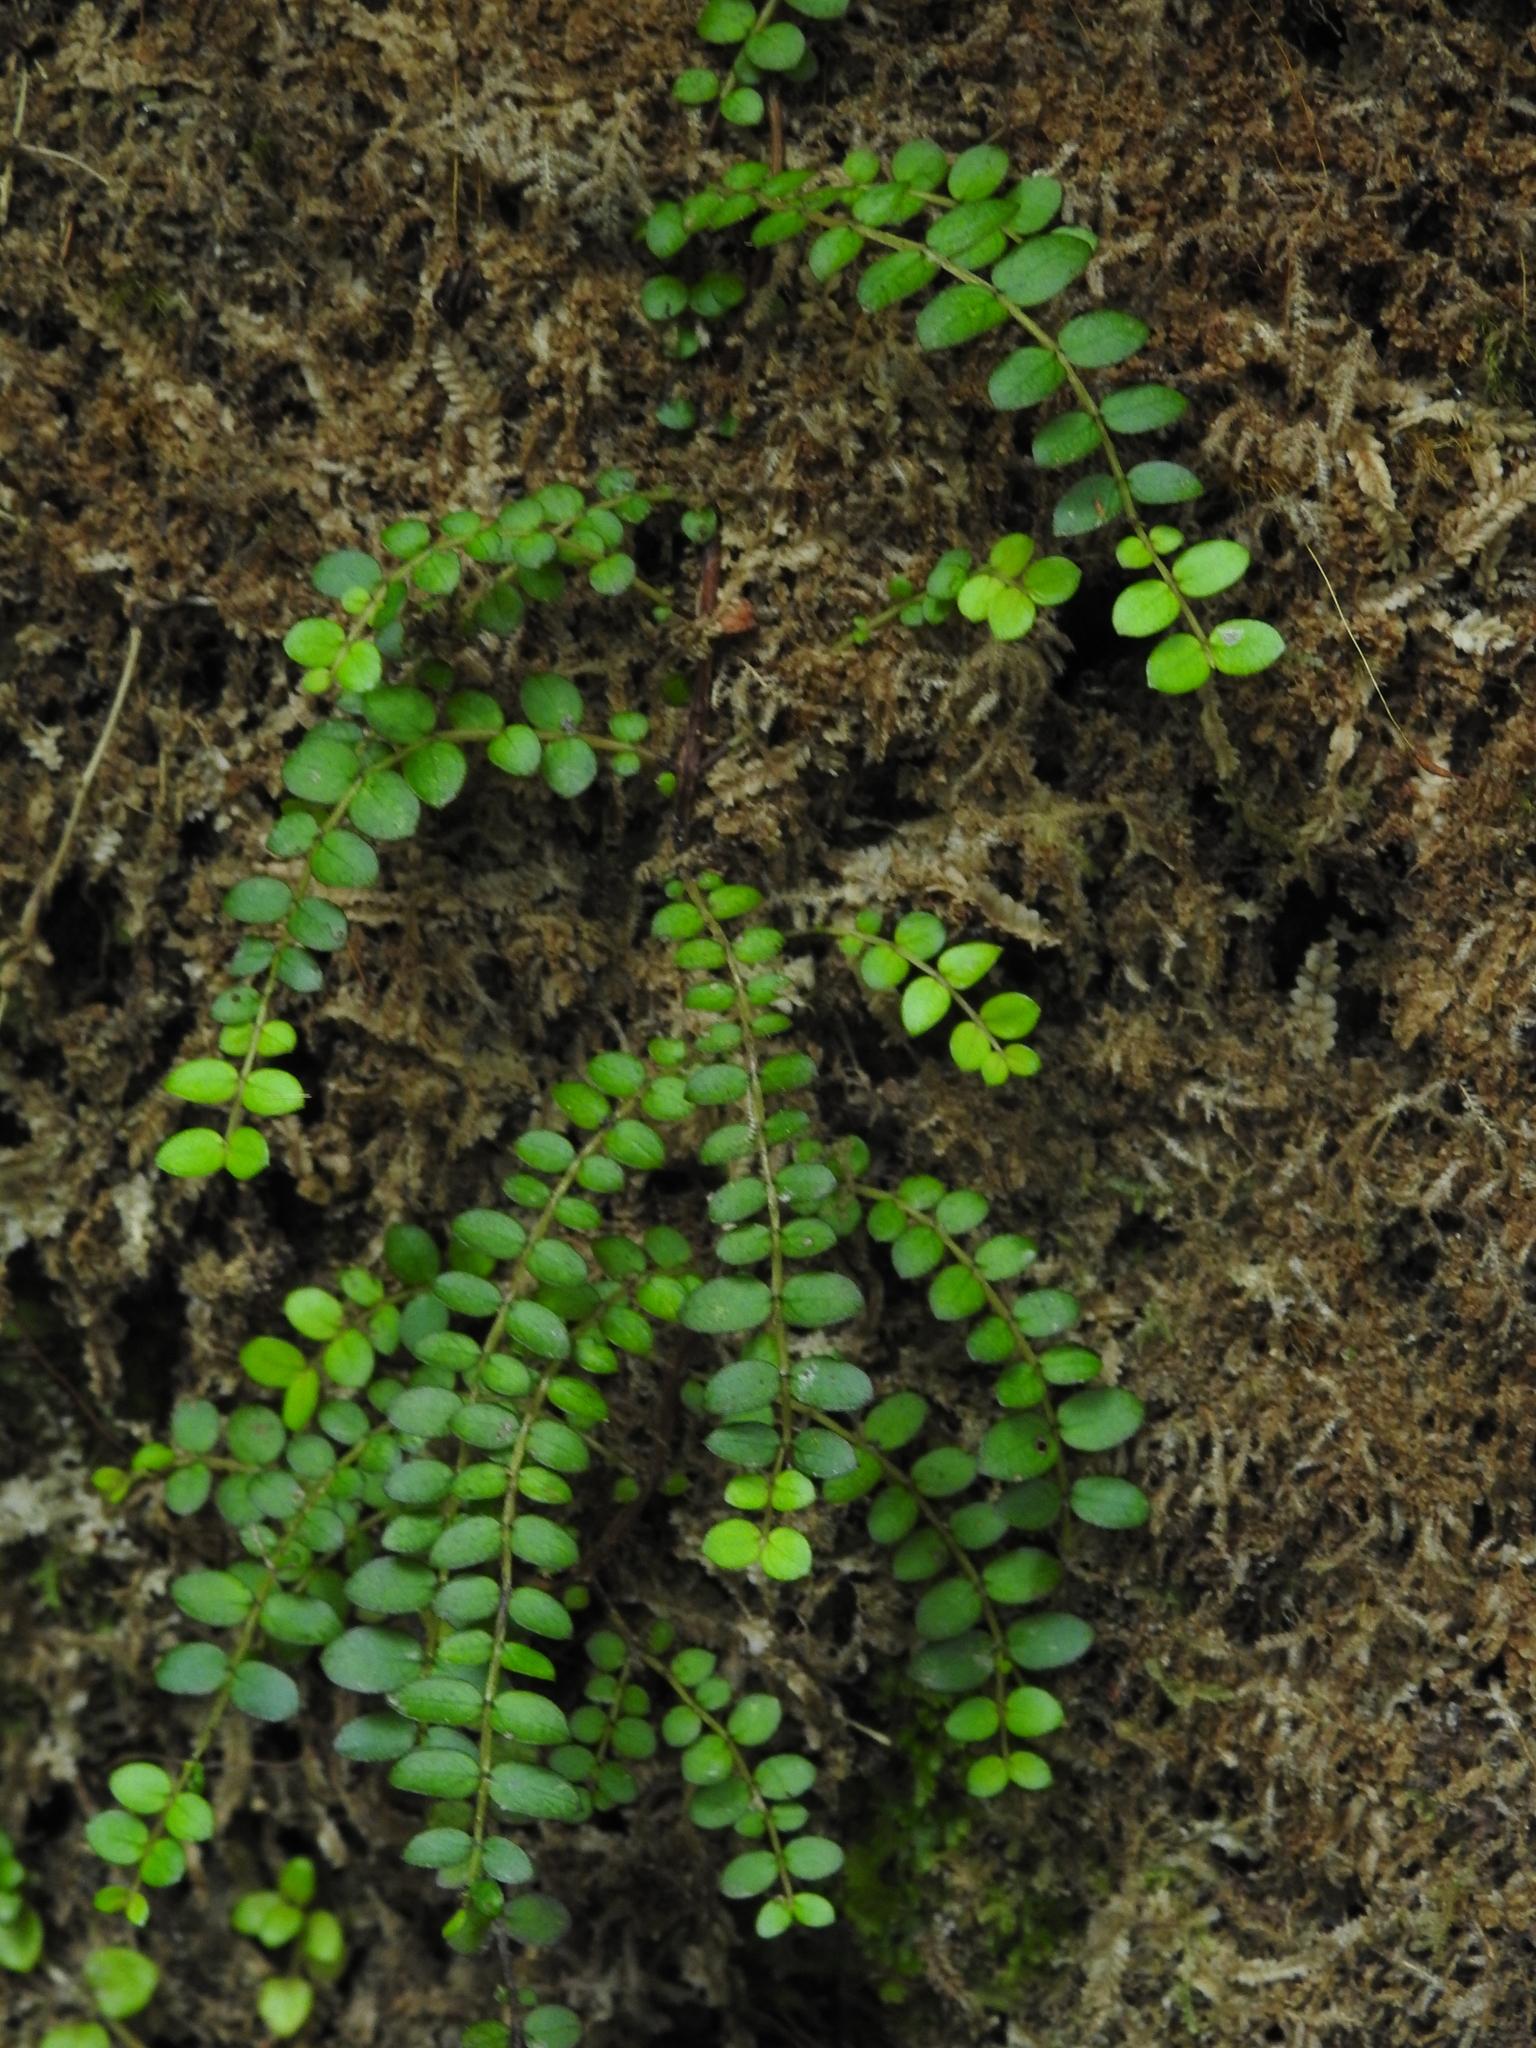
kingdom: Plantae
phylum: Tracheophyta
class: Magnoliopsida
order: Myrtales
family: Myrtaceae
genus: Metrosideros
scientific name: Metrosideros diffusa
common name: Small ratavine
